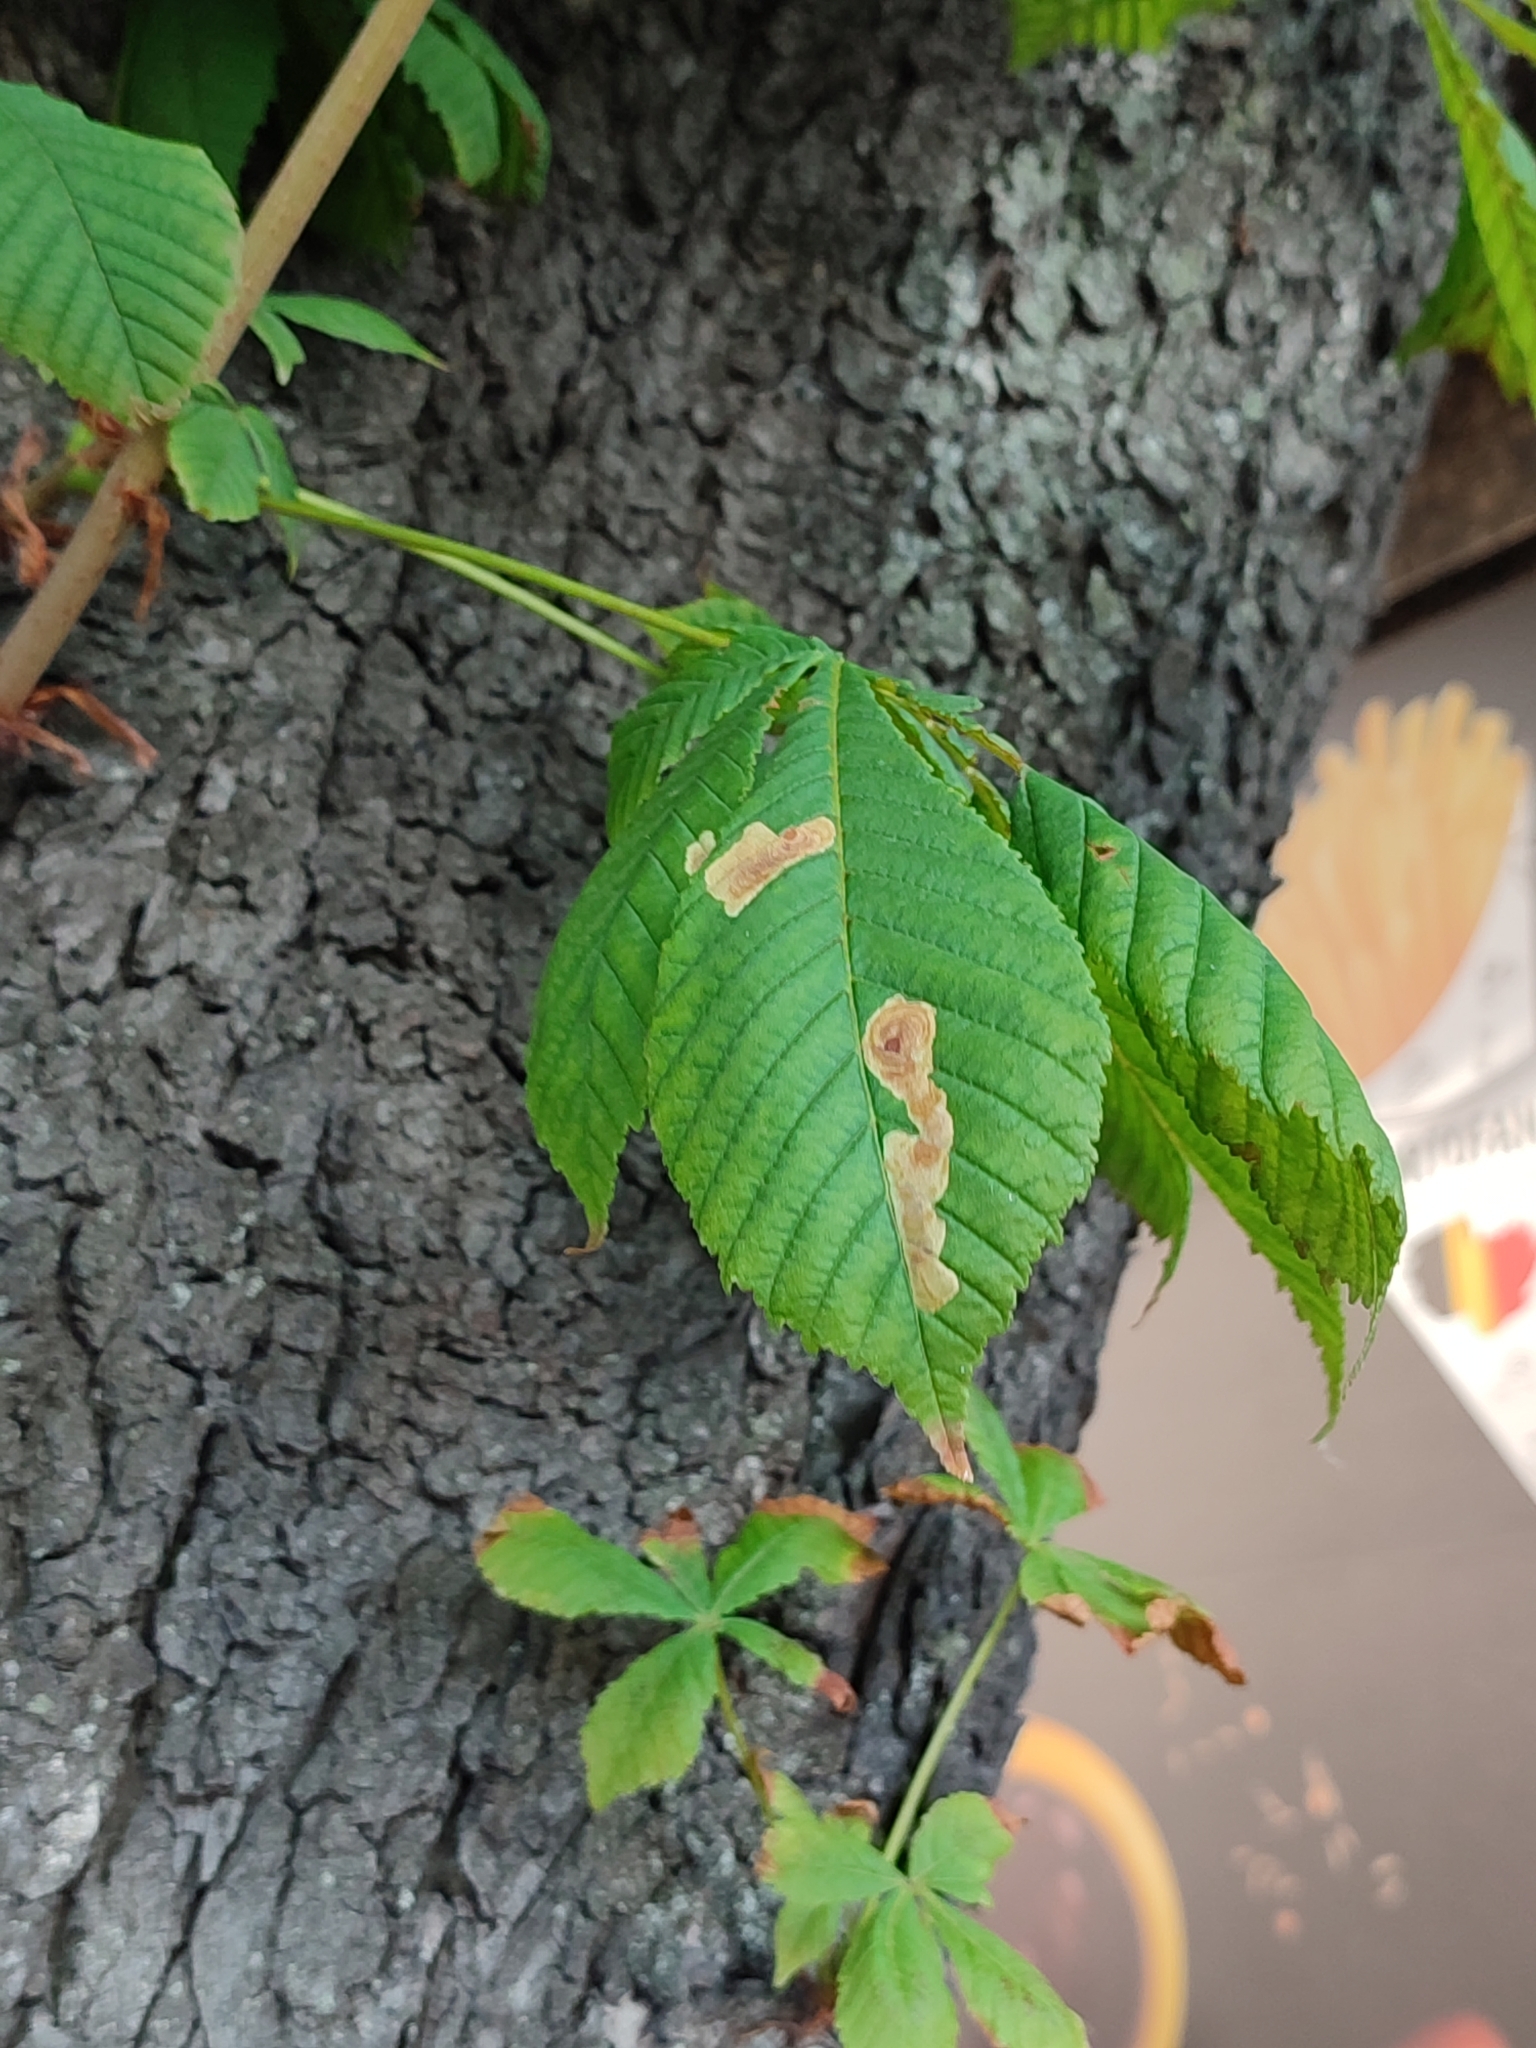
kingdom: Animalia
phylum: Arthropoda
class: Insecta
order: Lepidoptera
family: Gracillariidae
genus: Cameraria
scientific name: Cameraria ohridella
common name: Horse-chestnut leaf-miner
